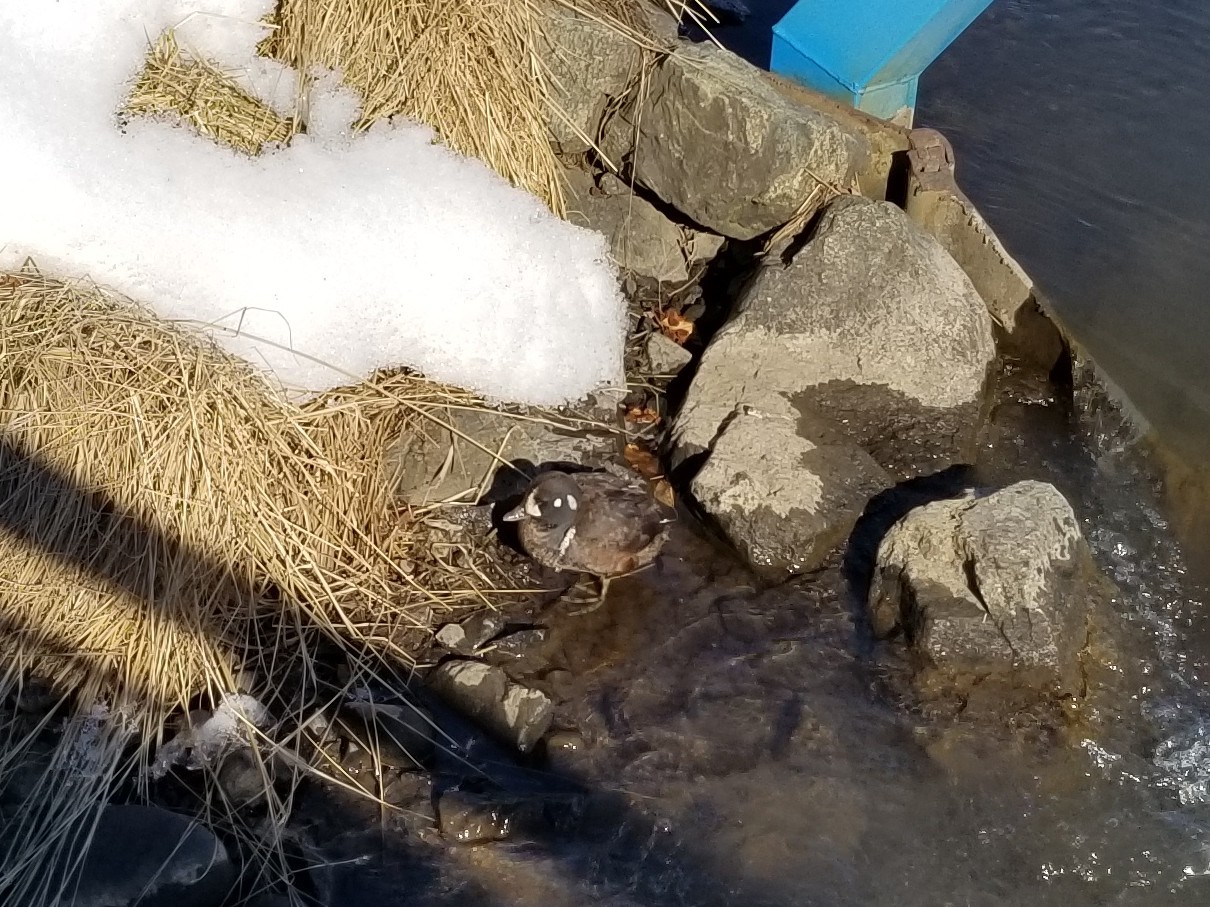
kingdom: Animalia
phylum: Chordata
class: Aves
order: Anseriformes
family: Anatidae
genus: Histrionicus
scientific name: Histrionicus histrionicus
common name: Harlequin duck
